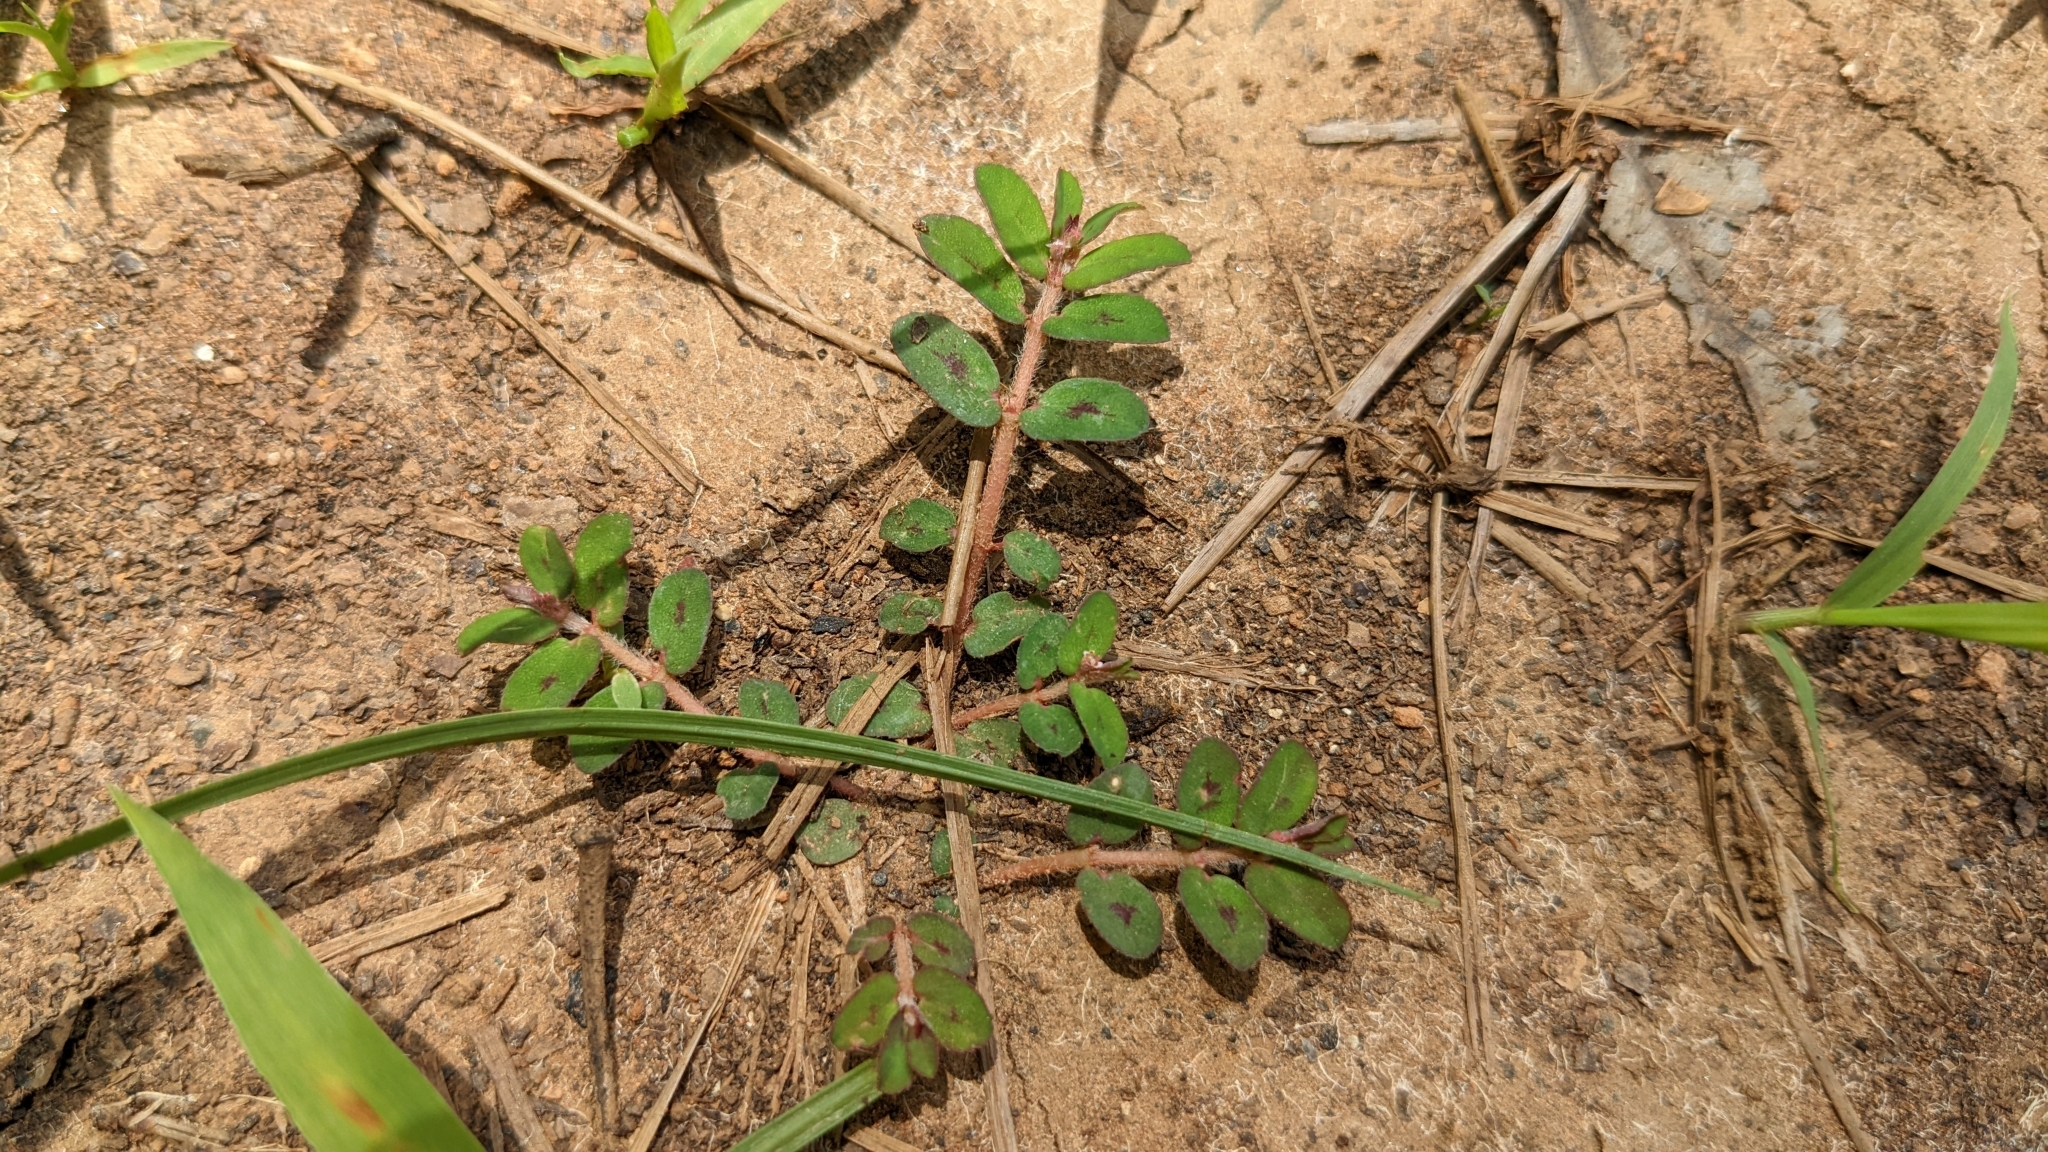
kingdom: Plantae
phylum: Tracheophyta
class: Magnoliopsida
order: Malpighiales
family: Euphorbiaceae
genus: Euphorbia
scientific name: Euphorbia maculata
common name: Spotted spurge
